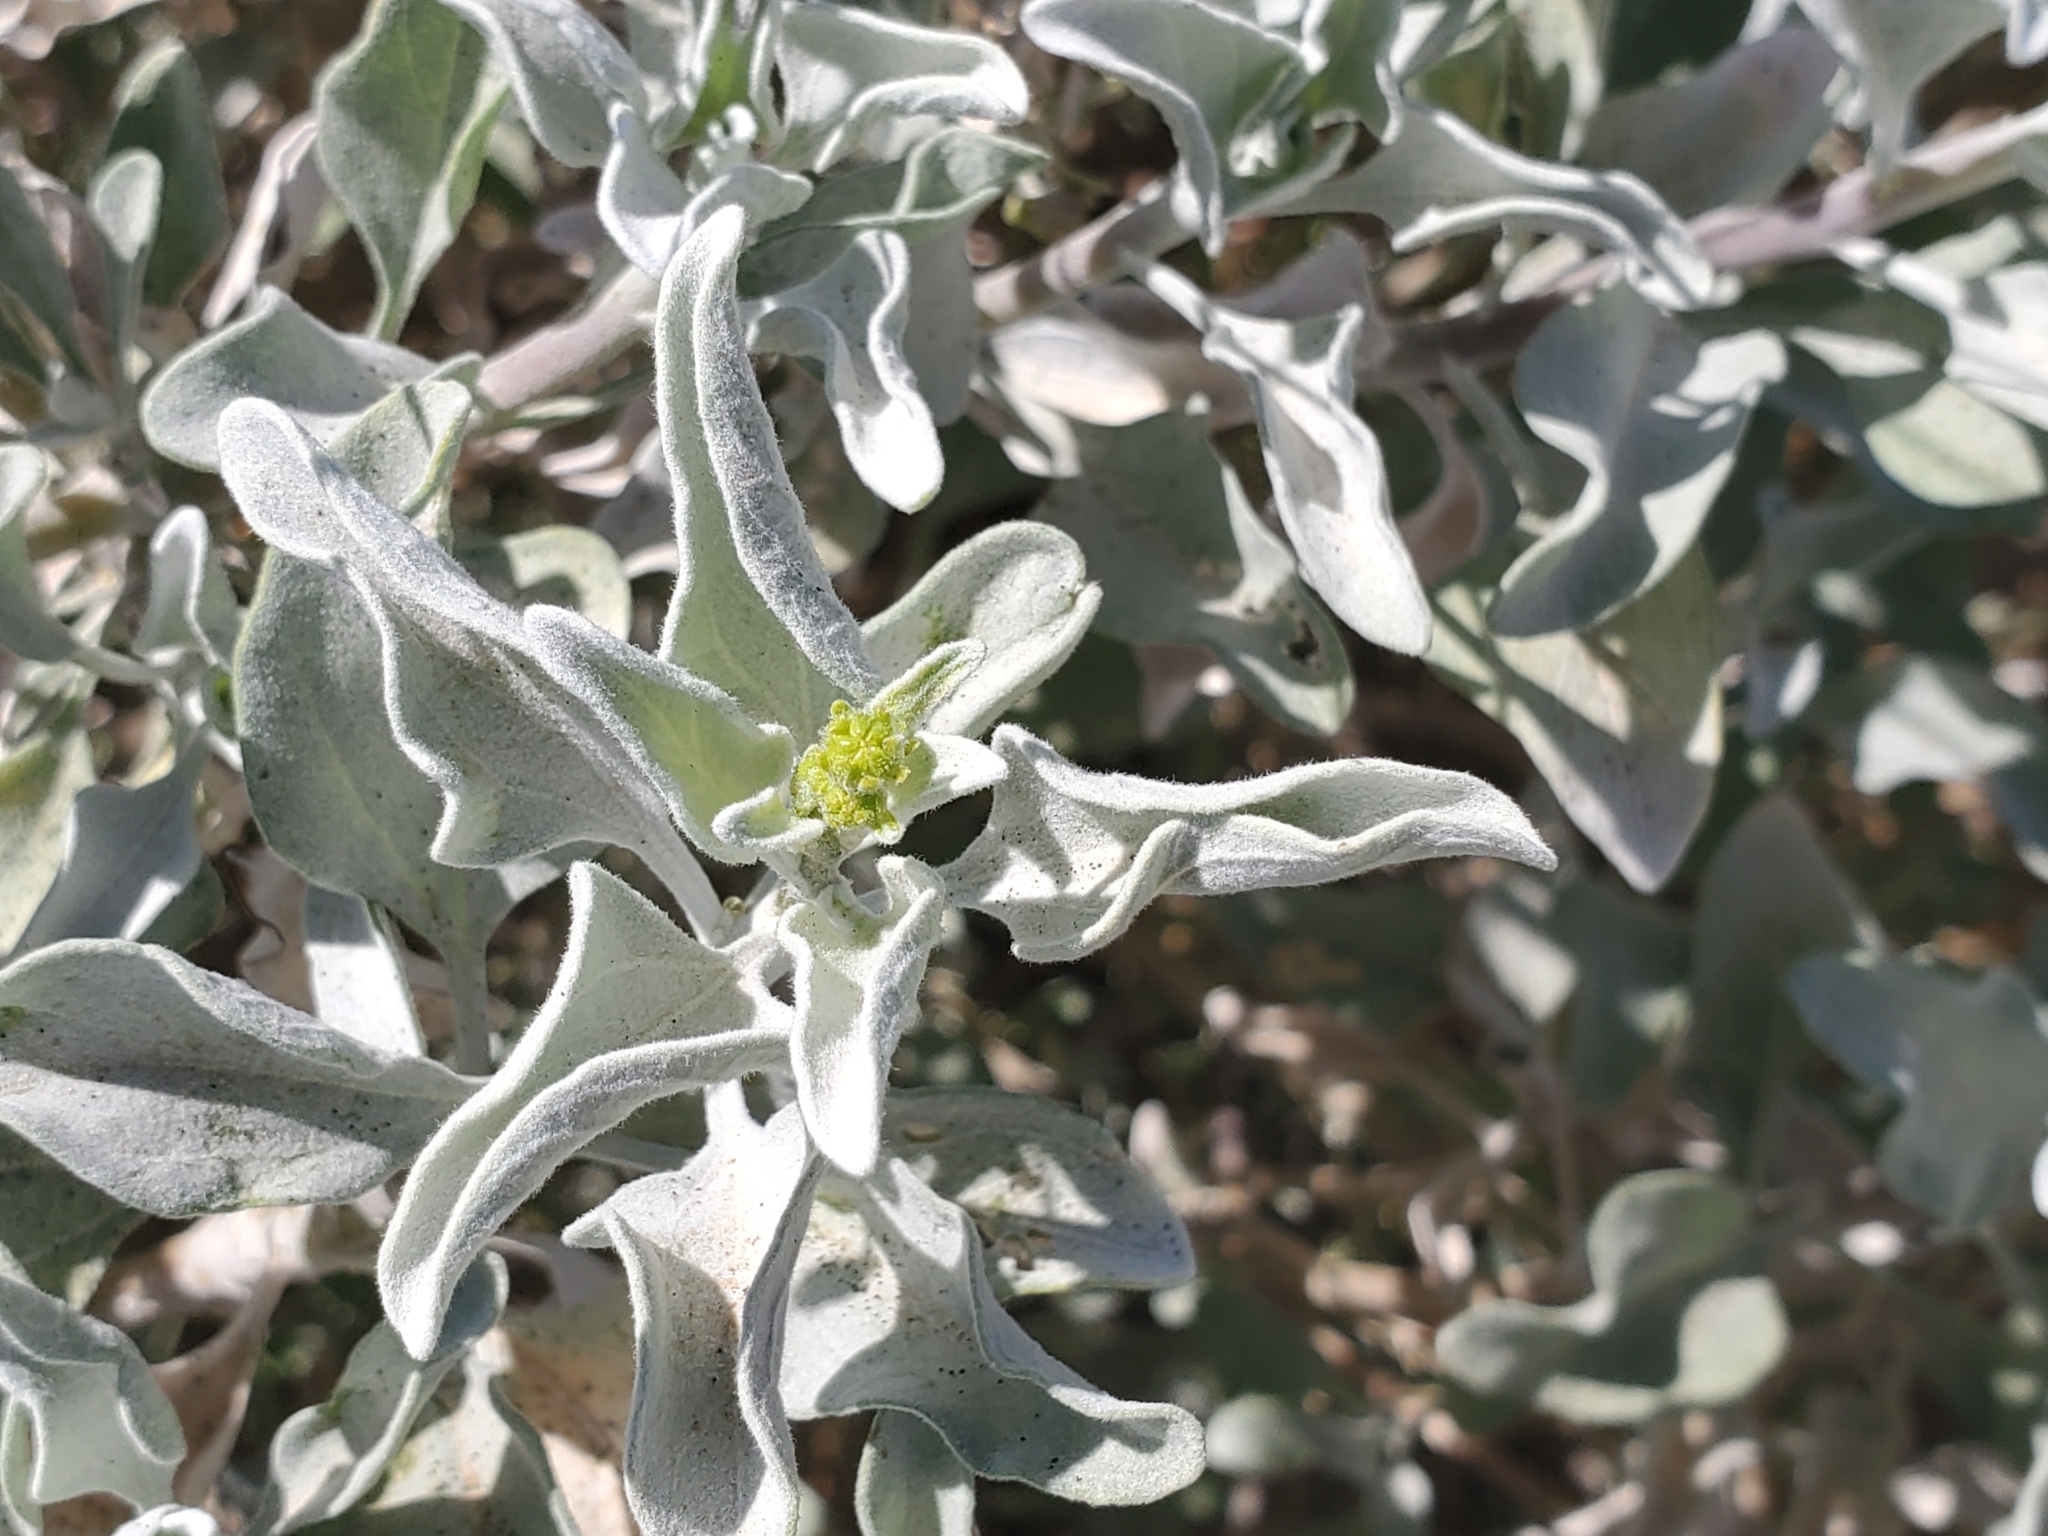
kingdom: Plantae
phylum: Tracheophyta
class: Magnoliopsida
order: Asterales
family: Asteraceae
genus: Encelia
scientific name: Encelia farinosa
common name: Brittlebush
